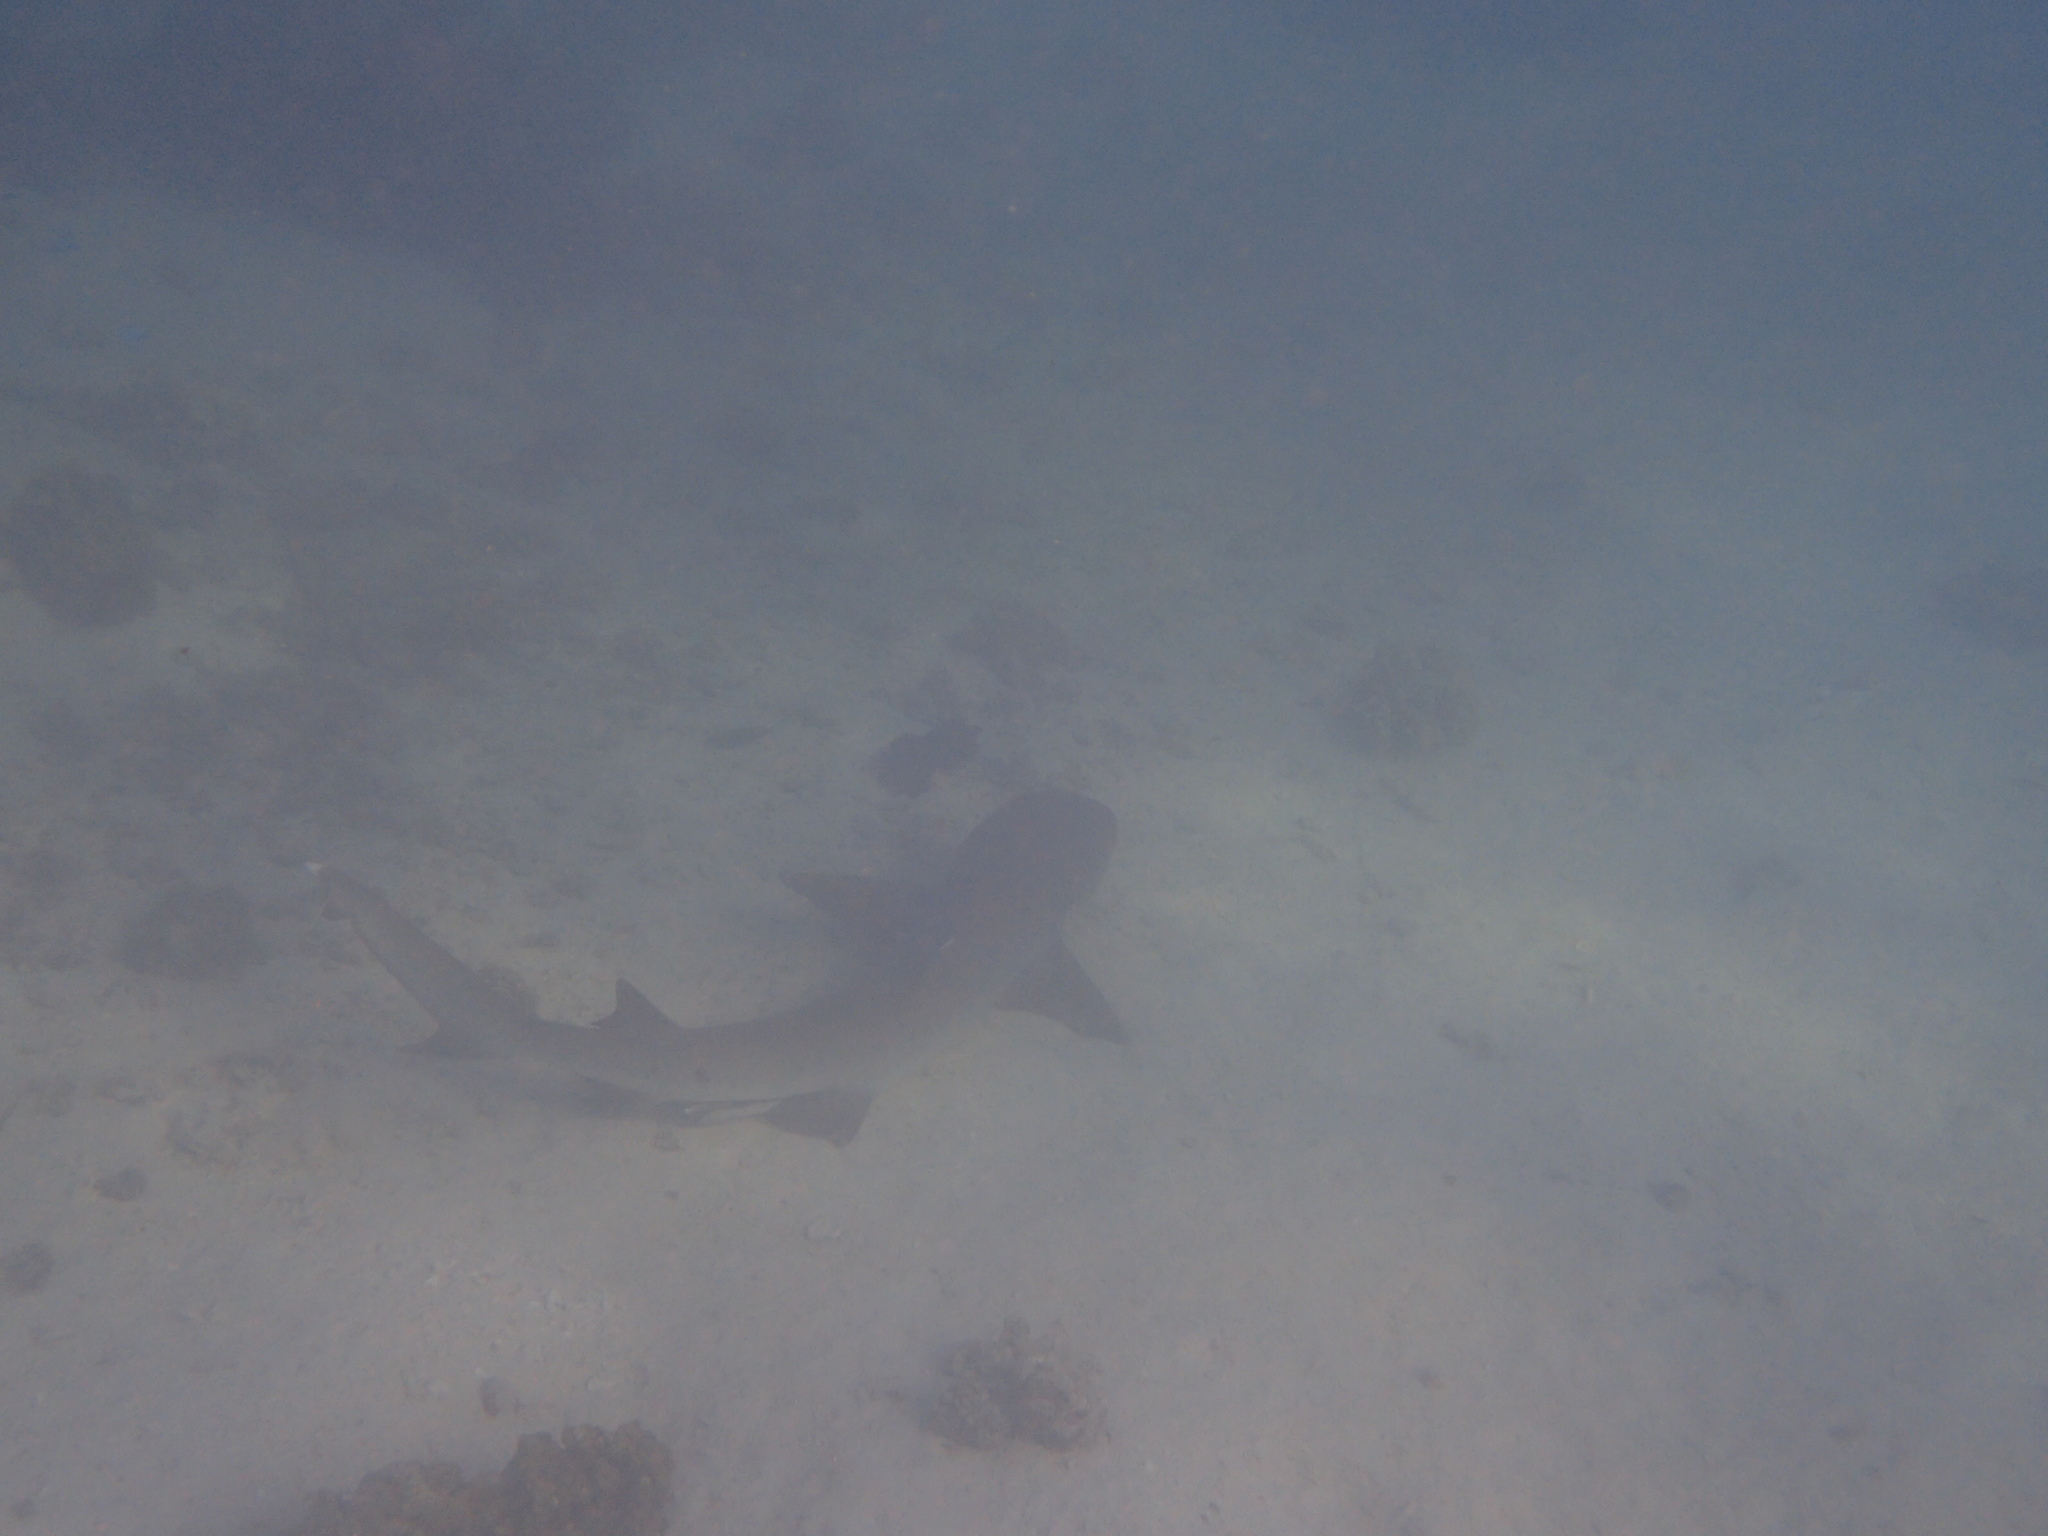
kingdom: Animalia
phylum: Chordata
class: Elasmobranchii
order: Carcharhiniformes
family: Carcharhinidae
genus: Triaenodon
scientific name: Triaenodon obesus
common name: Whitetip reef shark
